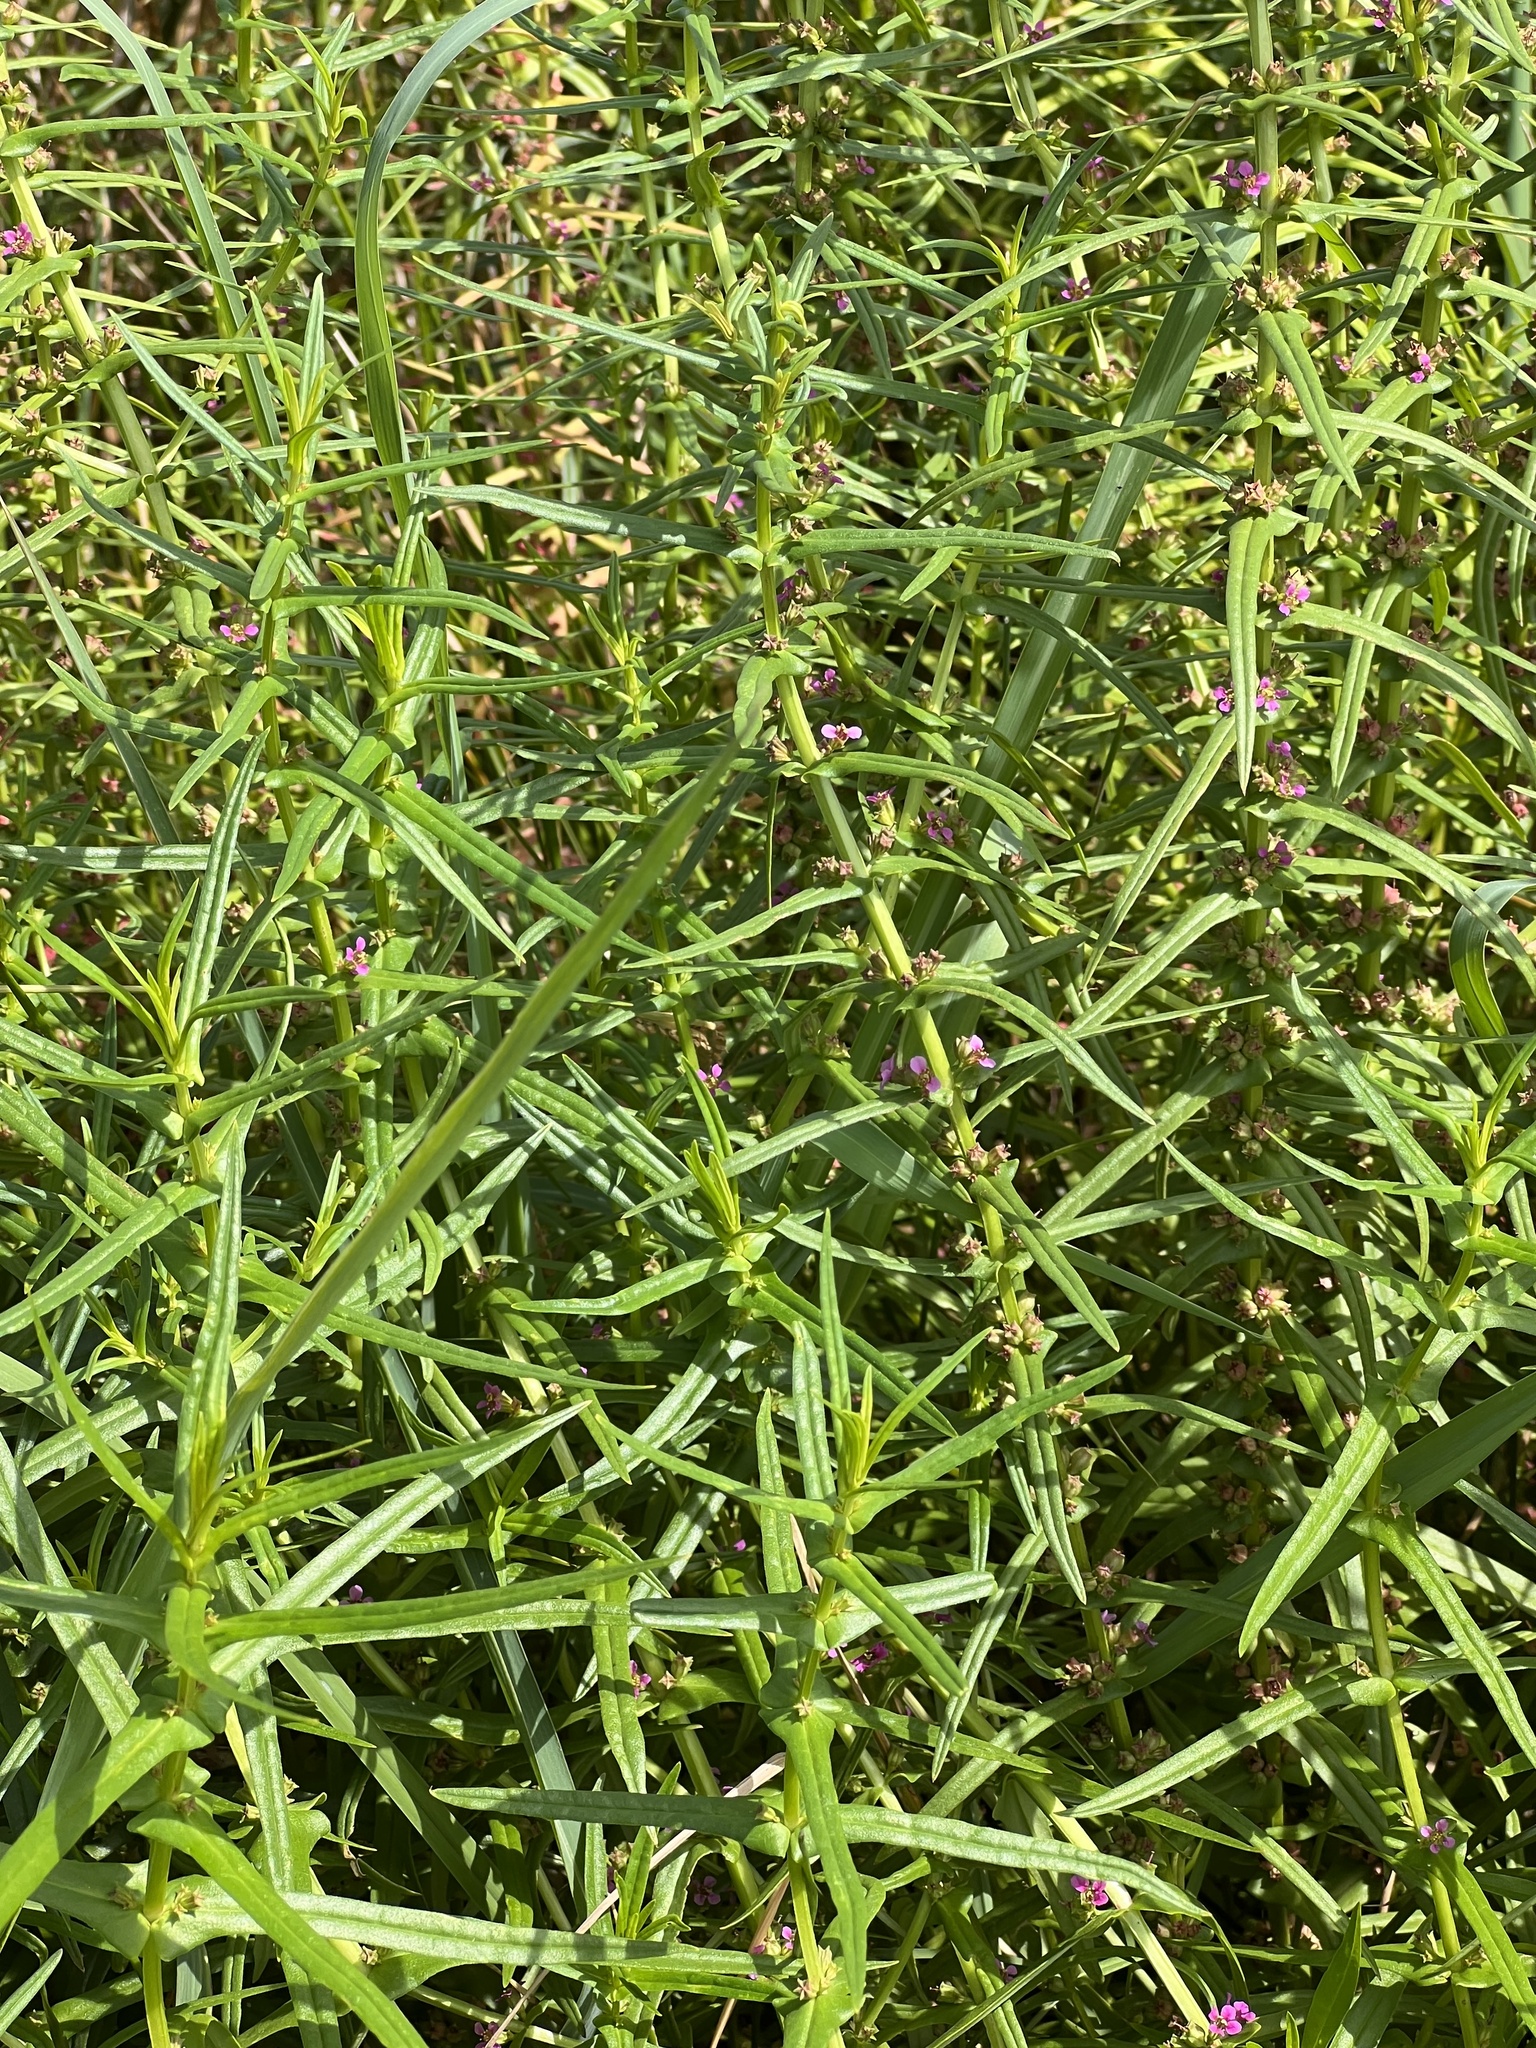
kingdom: Plantae
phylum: Tracheophyta
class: Magnoliopsida
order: Myrtales
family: Lythraceae
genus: Ammannia
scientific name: Ammannia coccinea
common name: Valley redstem
